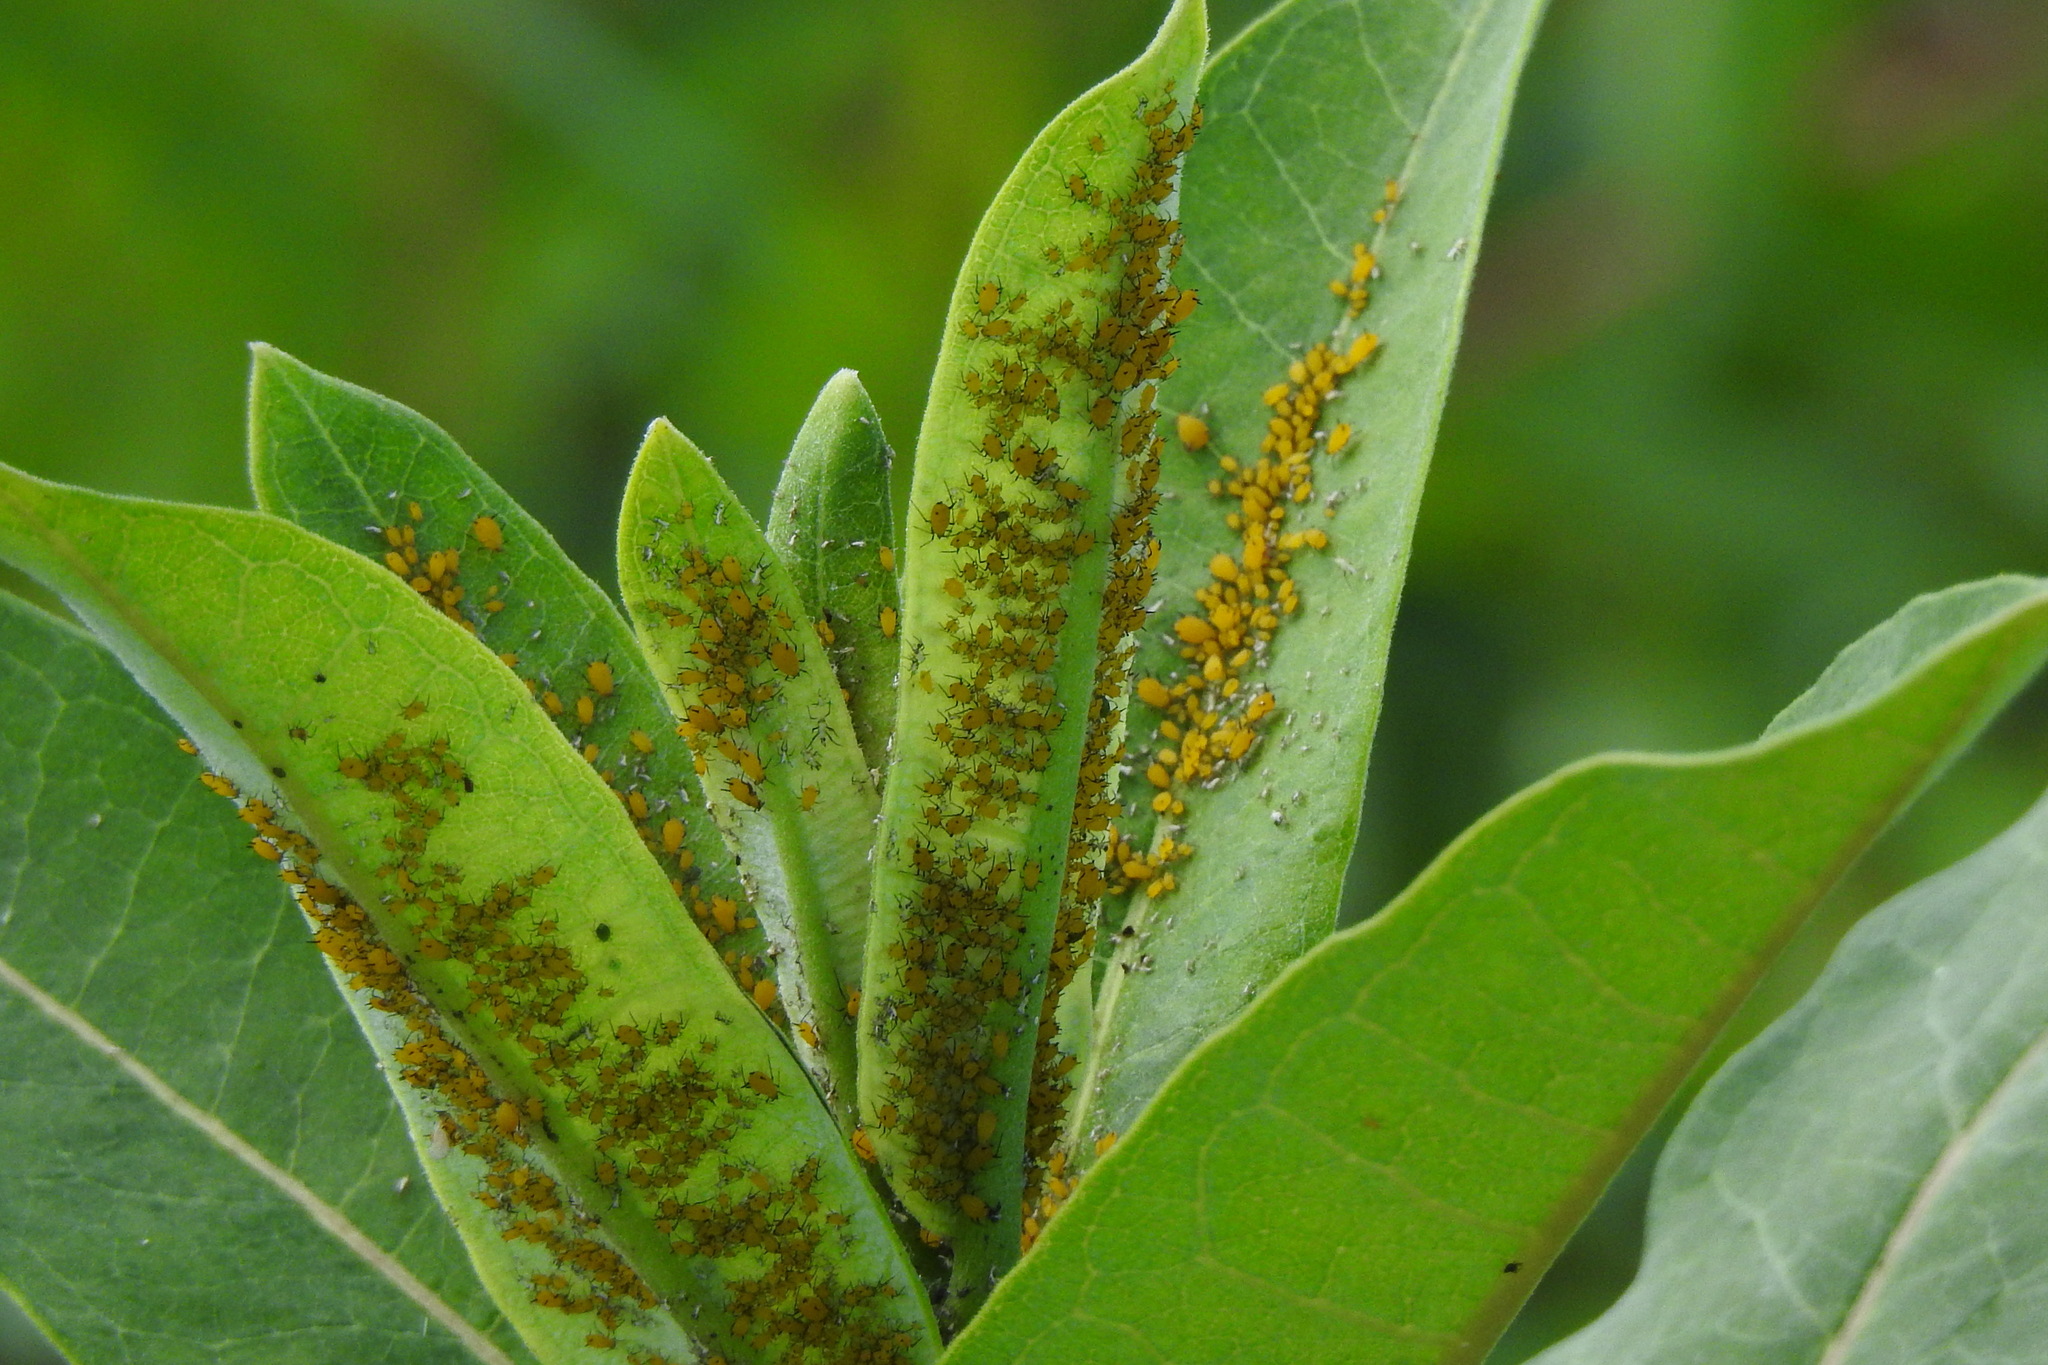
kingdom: Animalia
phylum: Arthropoda
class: Insecta
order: Hemiptera
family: Aphididae
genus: Aphis
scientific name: Aphis nerii
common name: Oleander aphid
